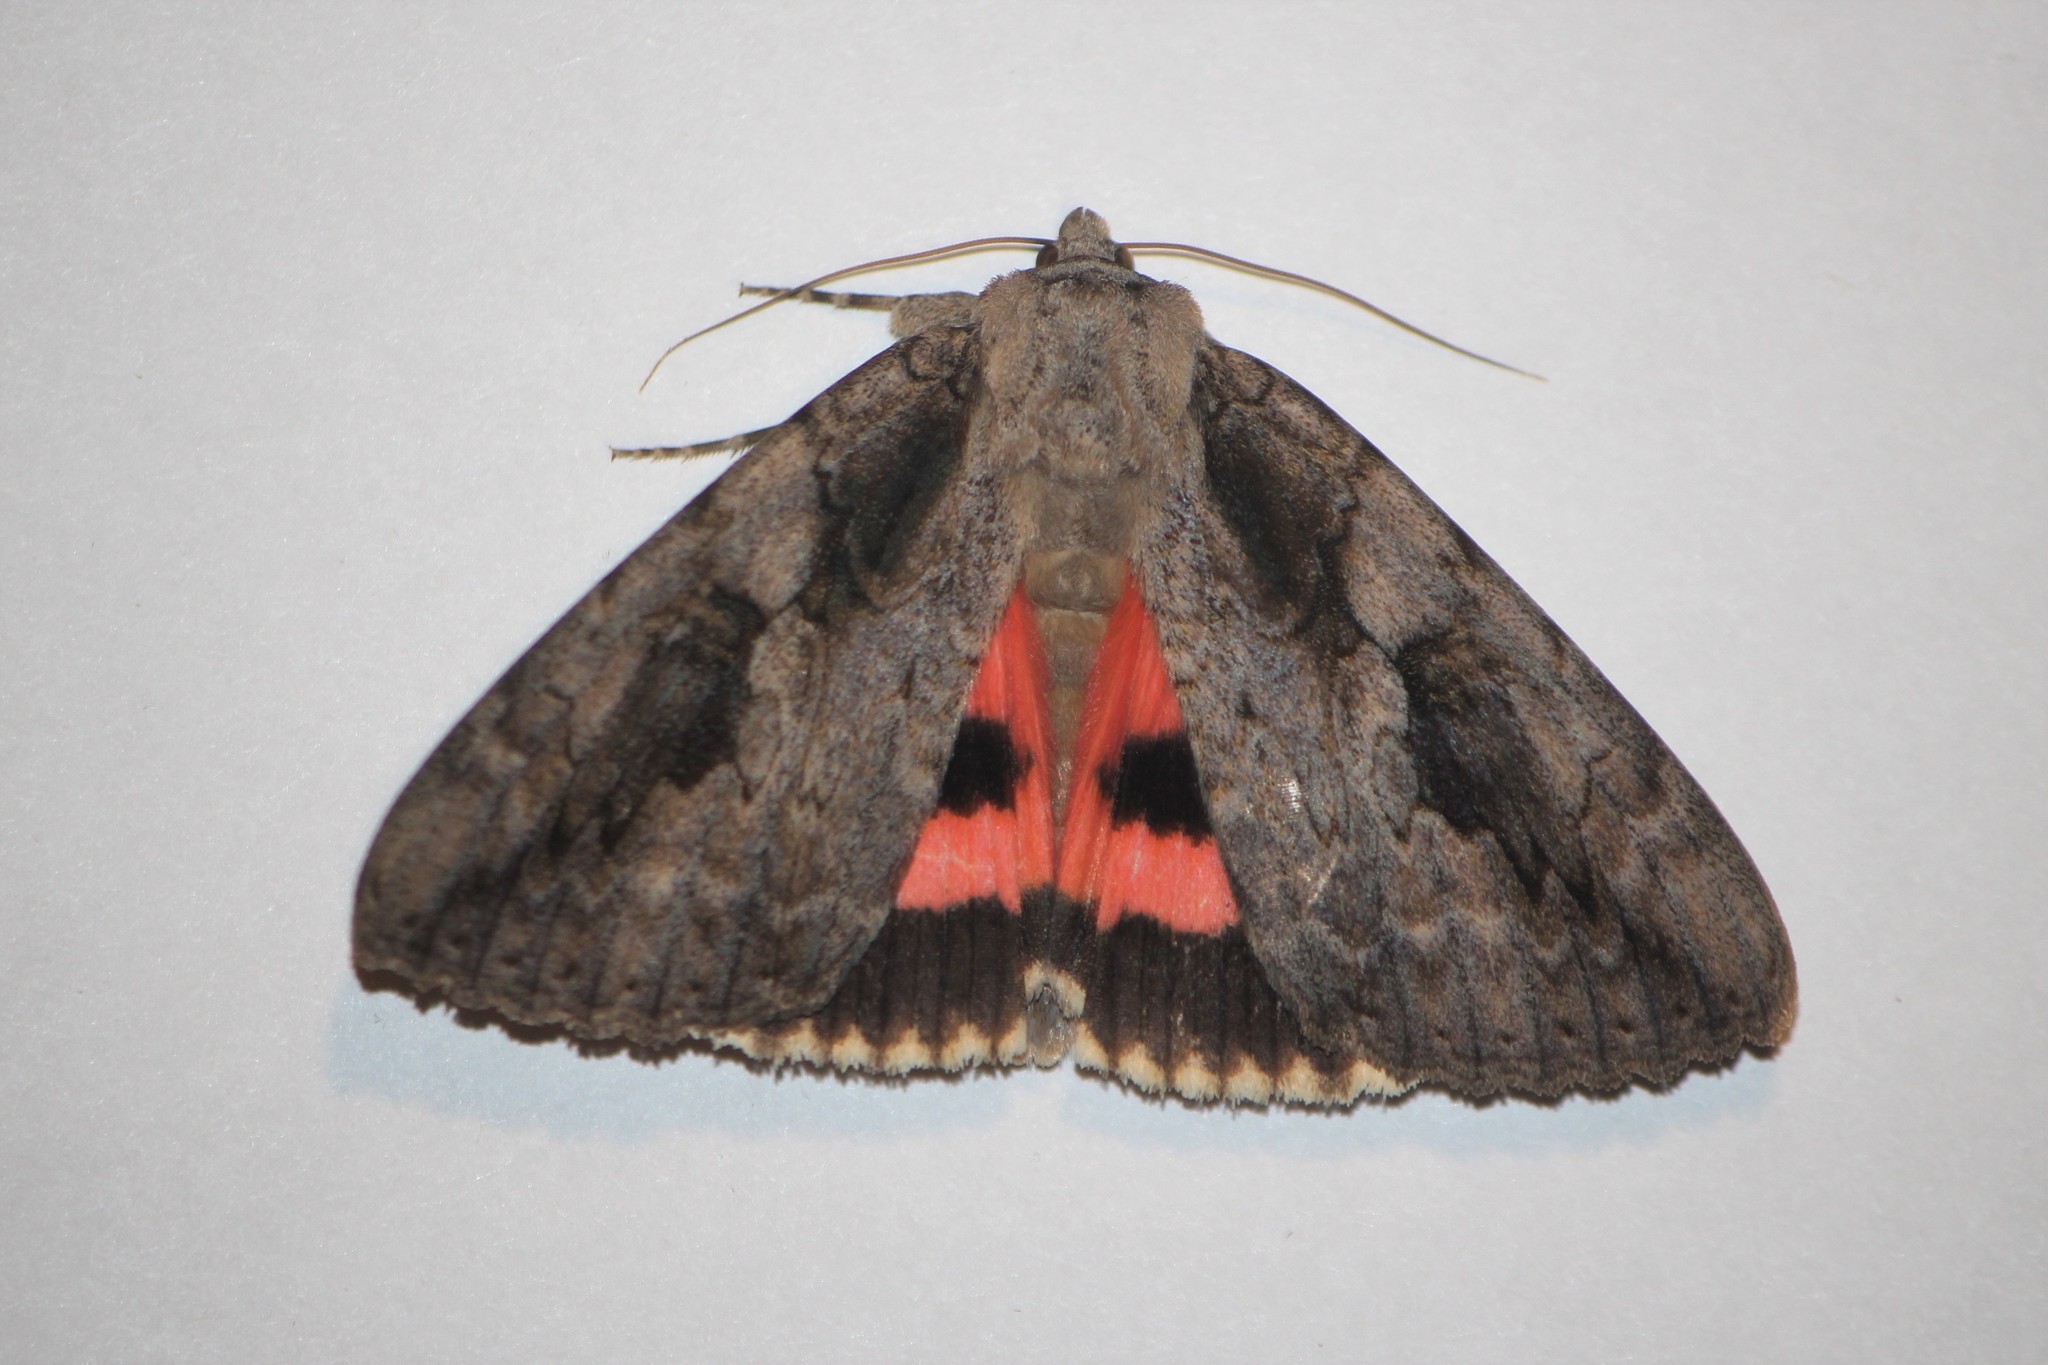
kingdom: Animalia
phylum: Arthropoda
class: Insecta
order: Lepidoptera
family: Erebidae
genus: Catocala
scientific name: Catocala amatrix
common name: Sweetheart underwing
